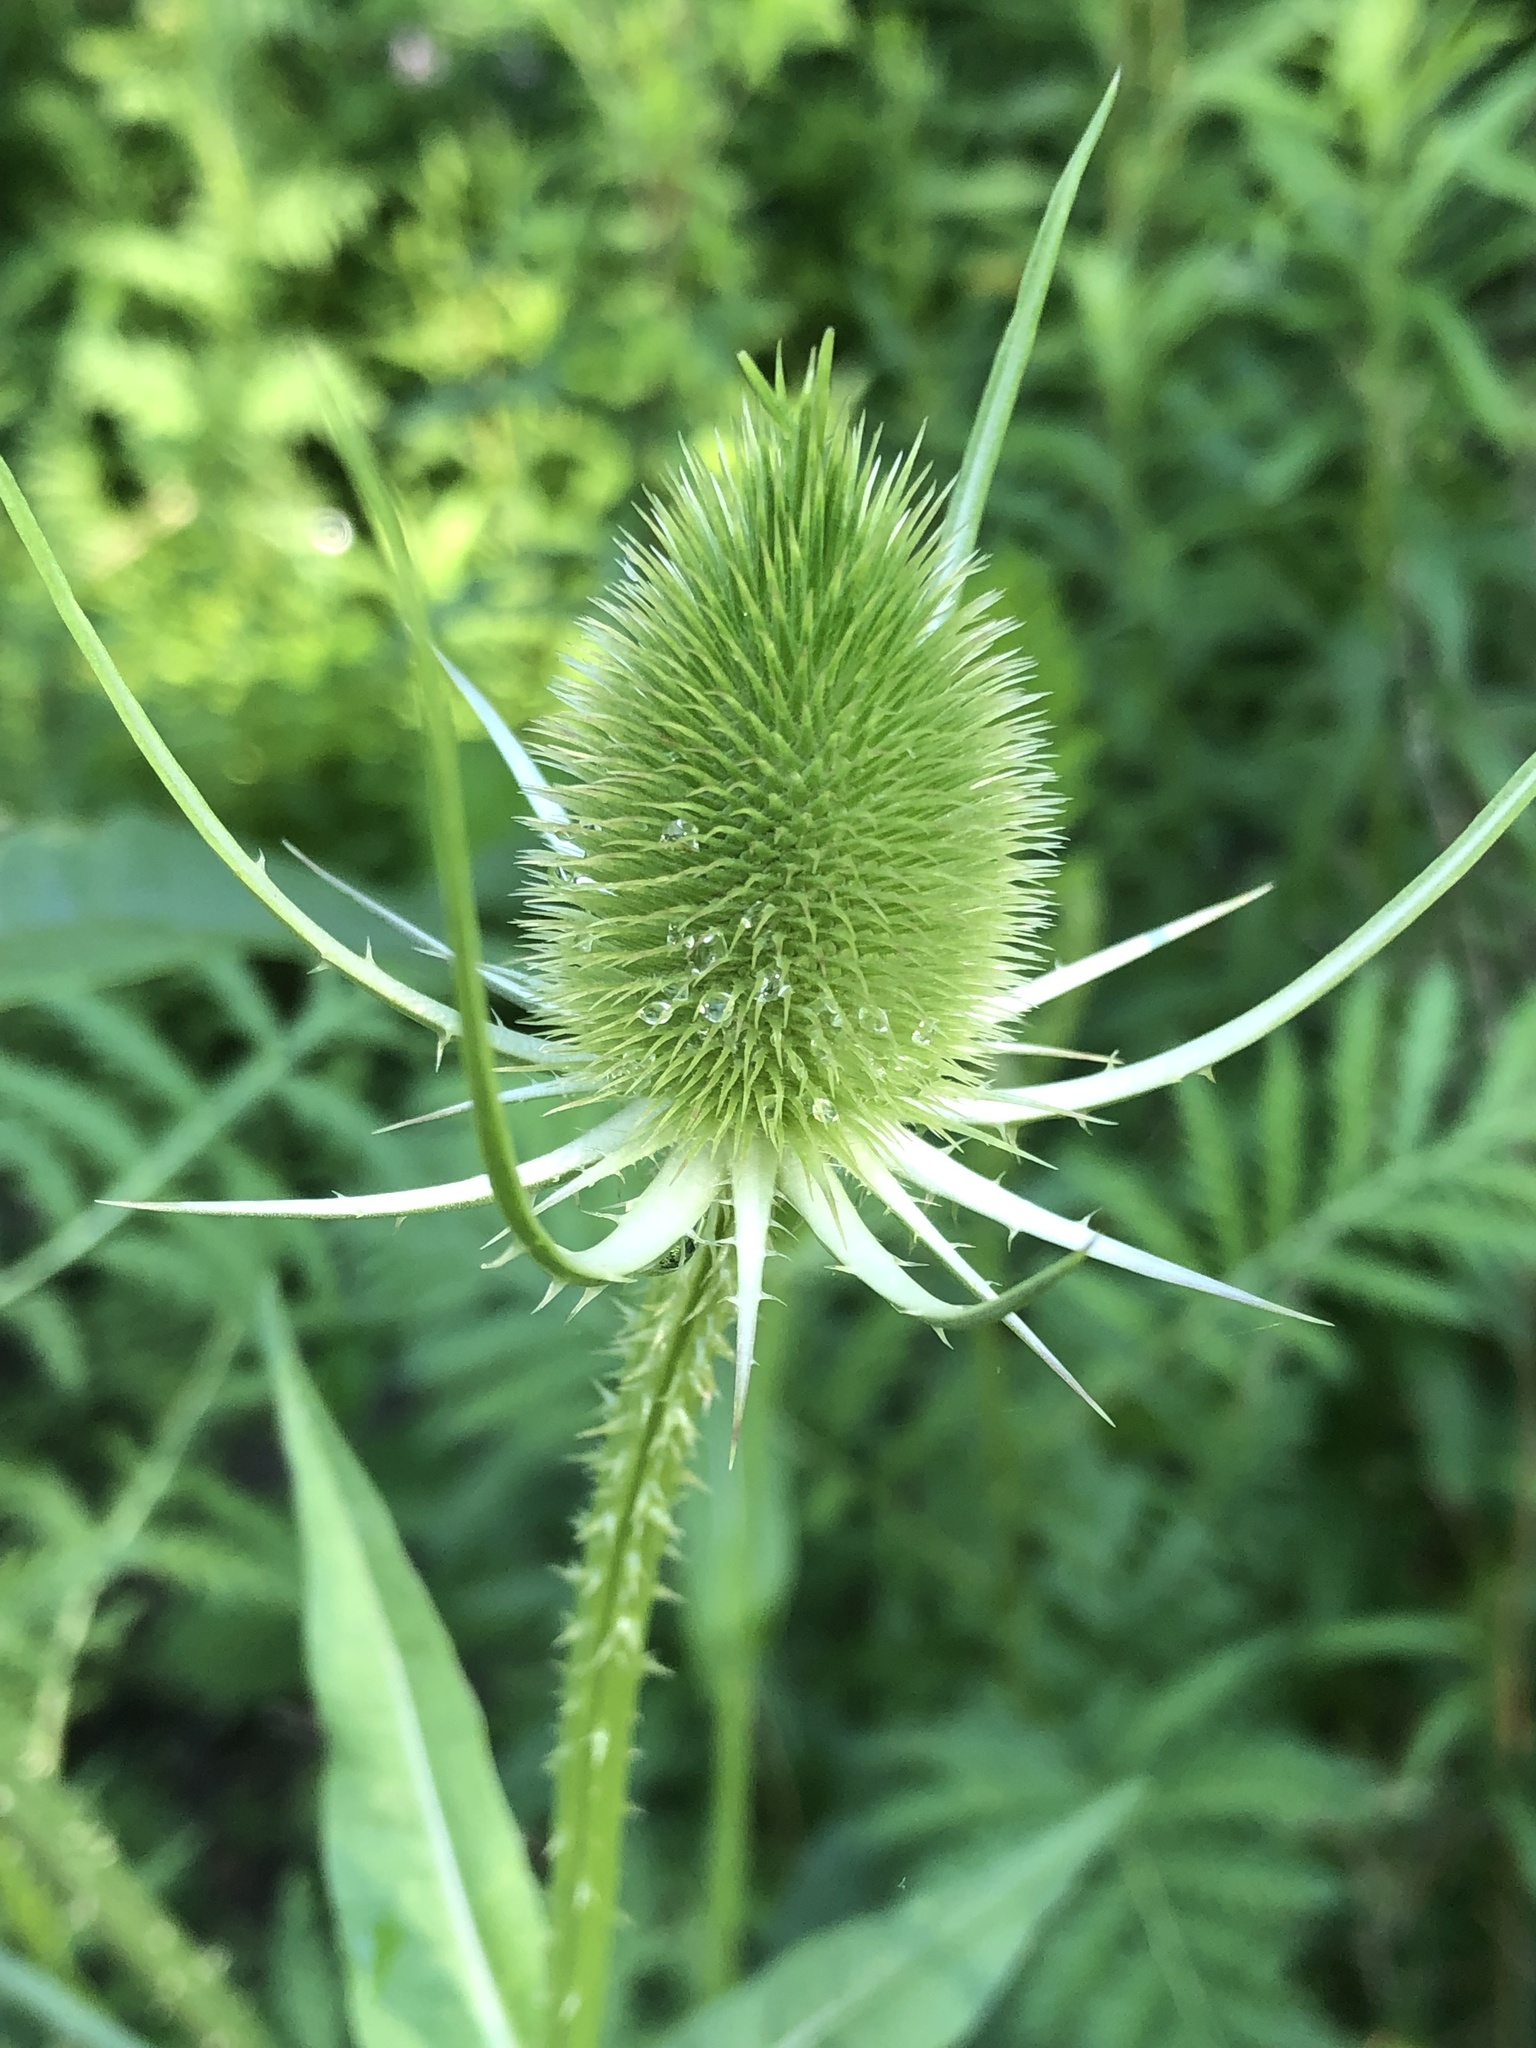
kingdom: Plantae
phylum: Tracheophyta
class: Magnoliopsida
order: Dipsacales
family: Caprifoliaceae
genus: Dipsacus
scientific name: Dipsacus fullonum
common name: Teasel
